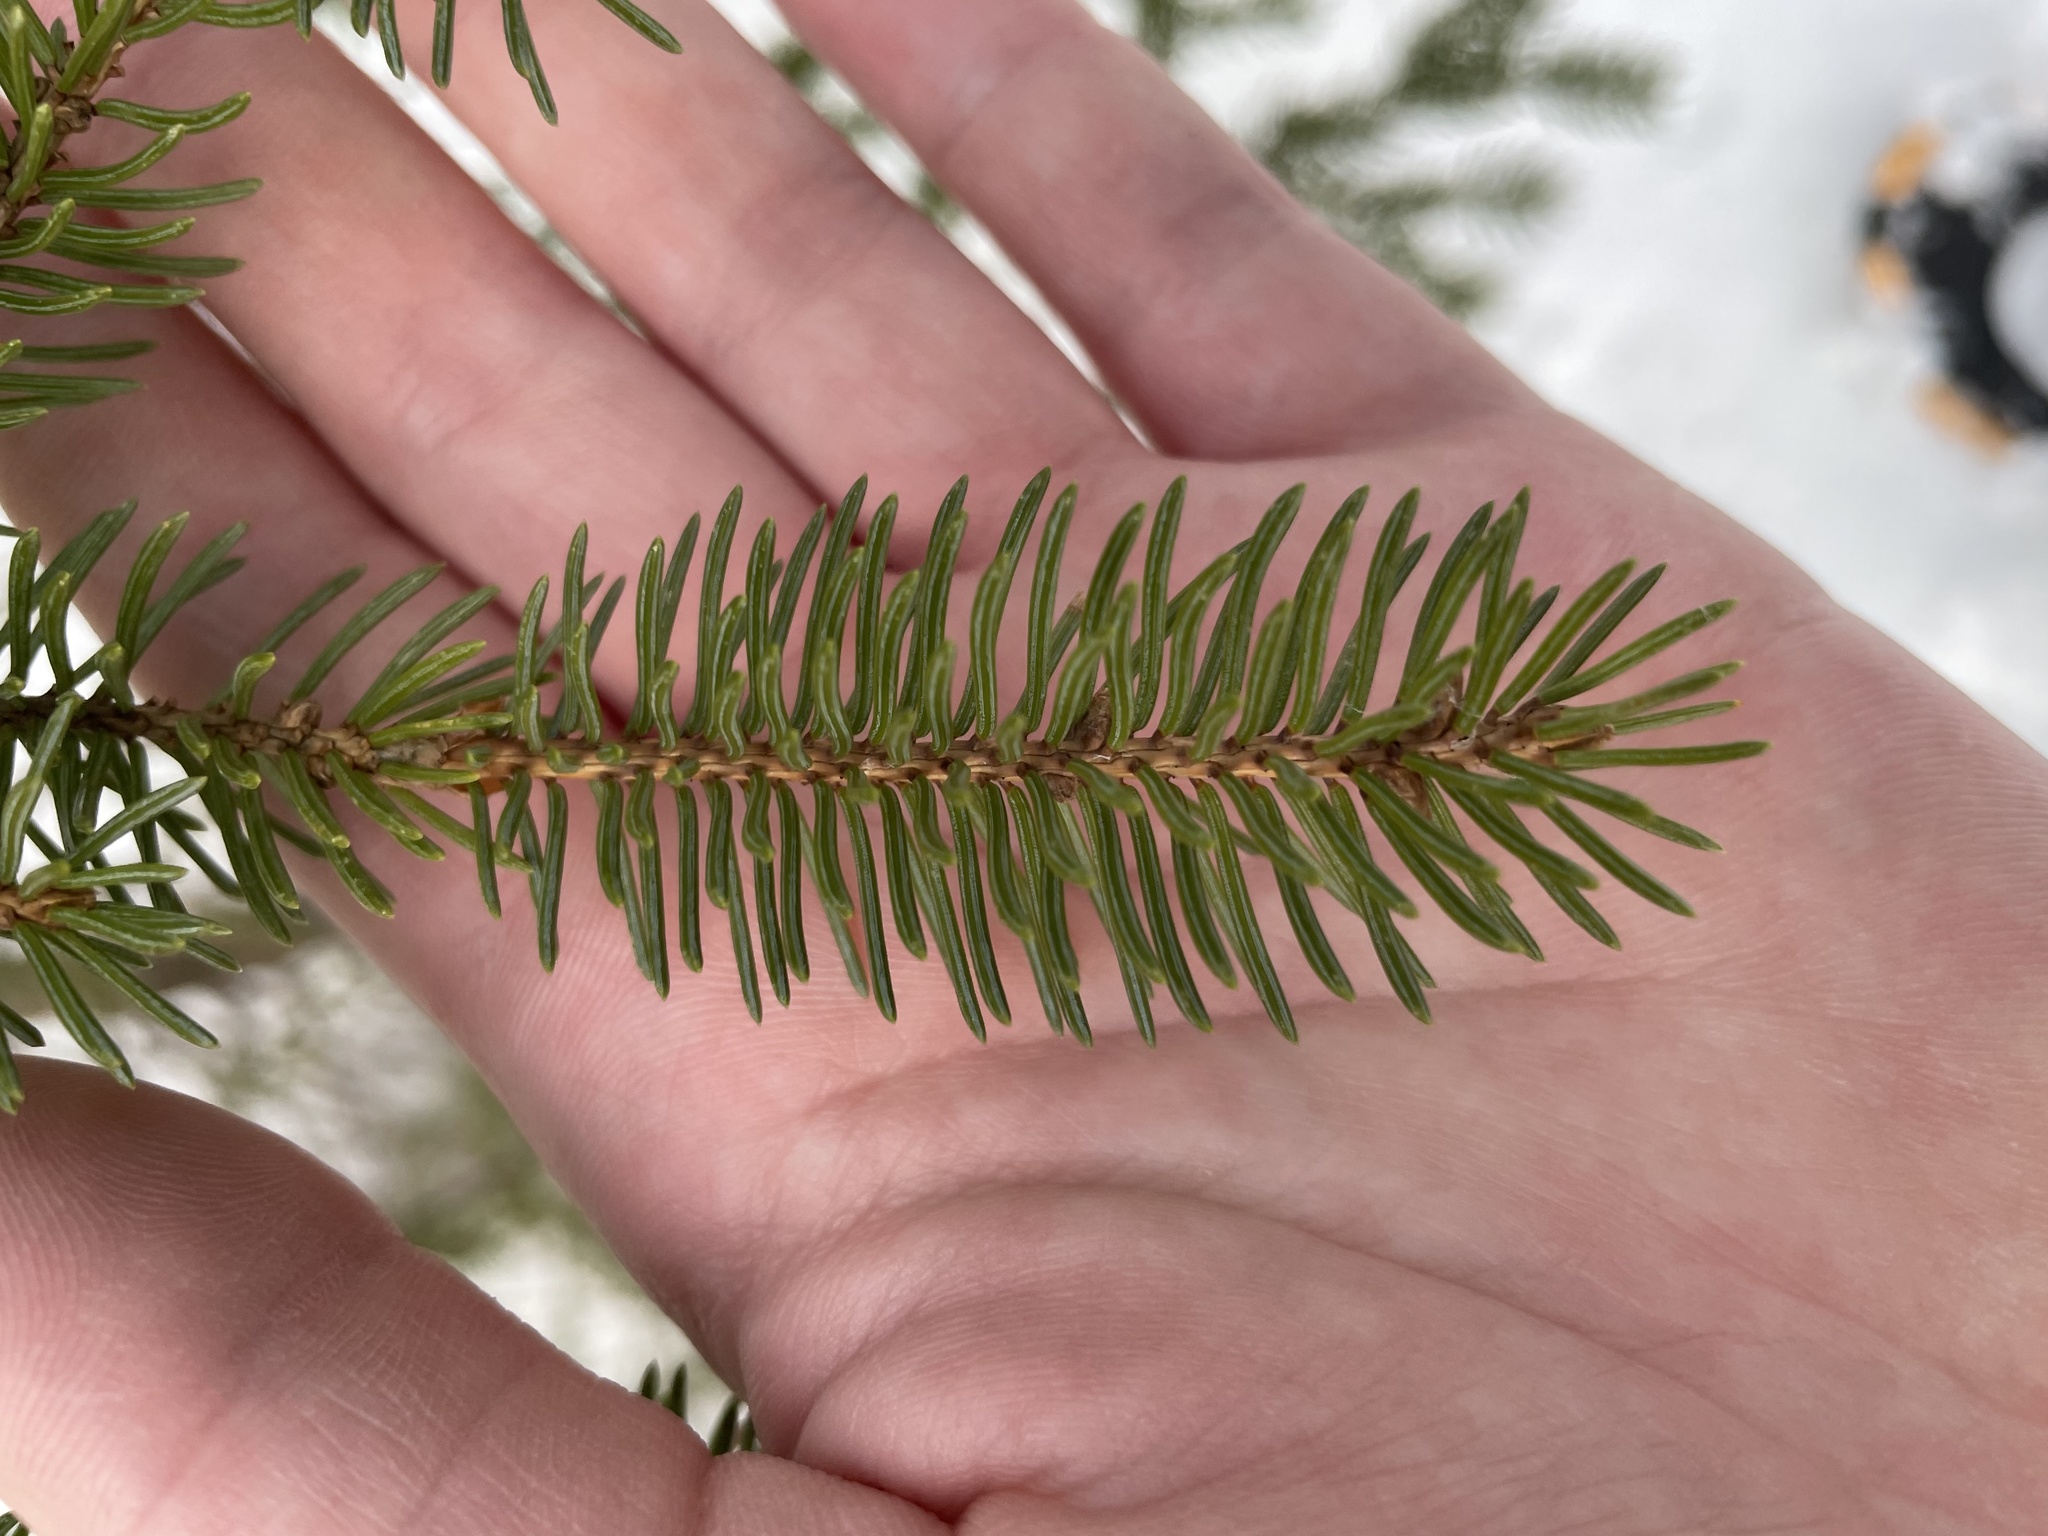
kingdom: Plantae
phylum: Tracheophyta
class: Pinopsida
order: Pinales
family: Pinaceae
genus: Picea
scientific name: Picea glauca
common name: White spruce
